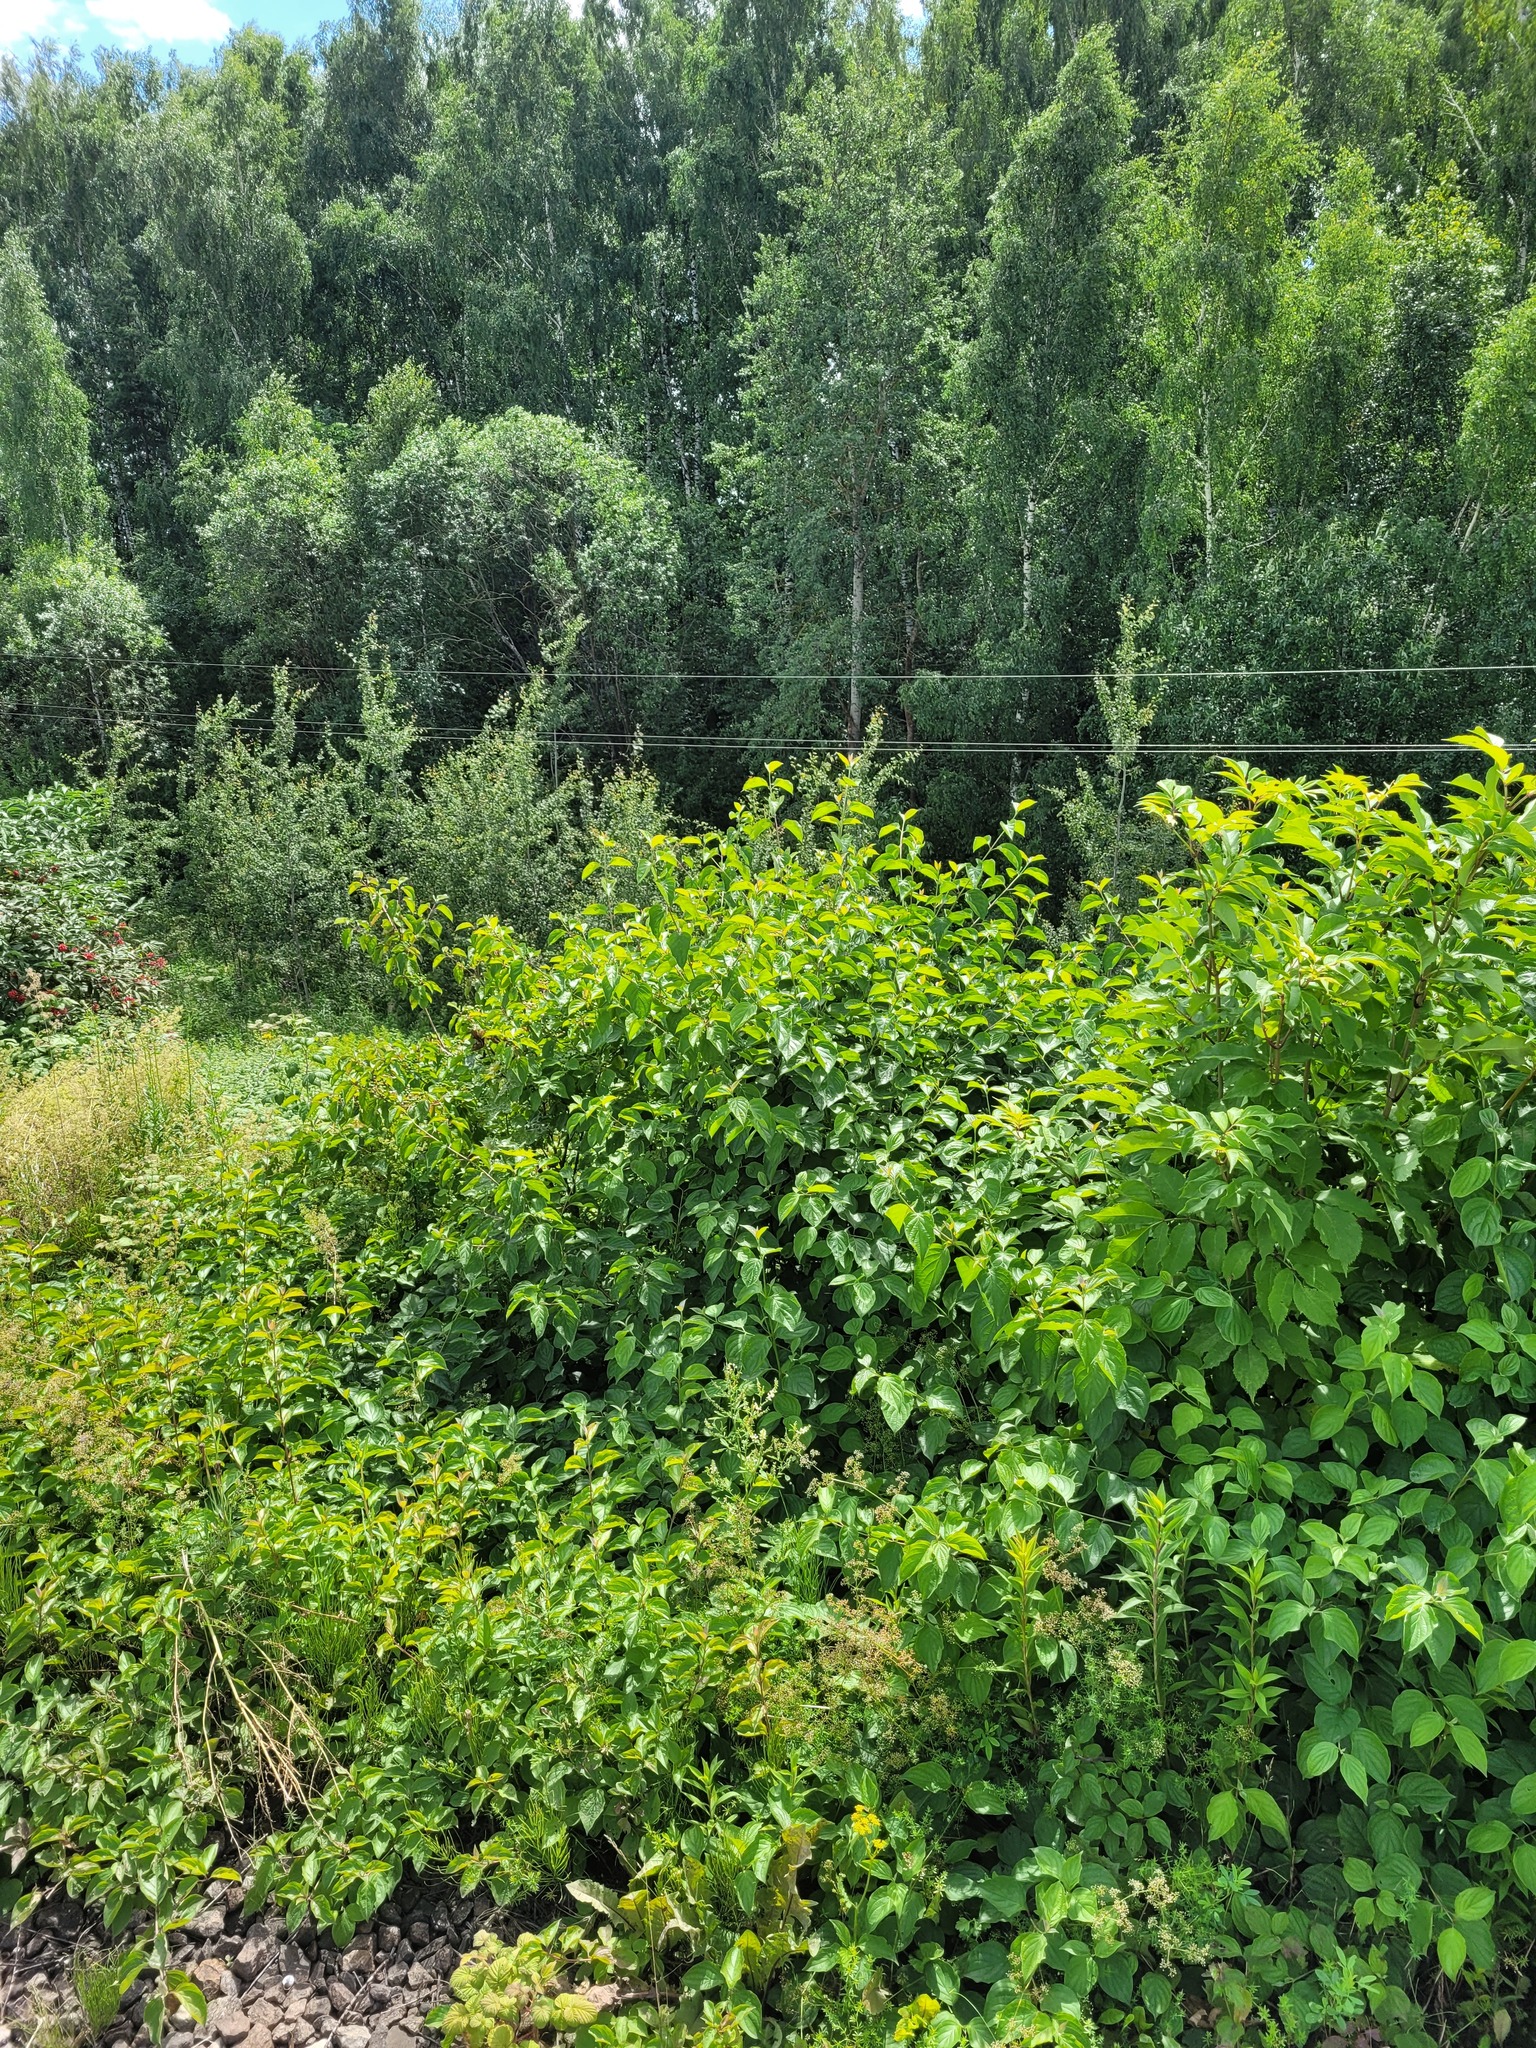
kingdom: Plantae
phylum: Tracheophyta
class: Magnoliopsida
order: Cornales
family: Cornaceae
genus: Cornus
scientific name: Cornus sanguinea
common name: Dogwood
